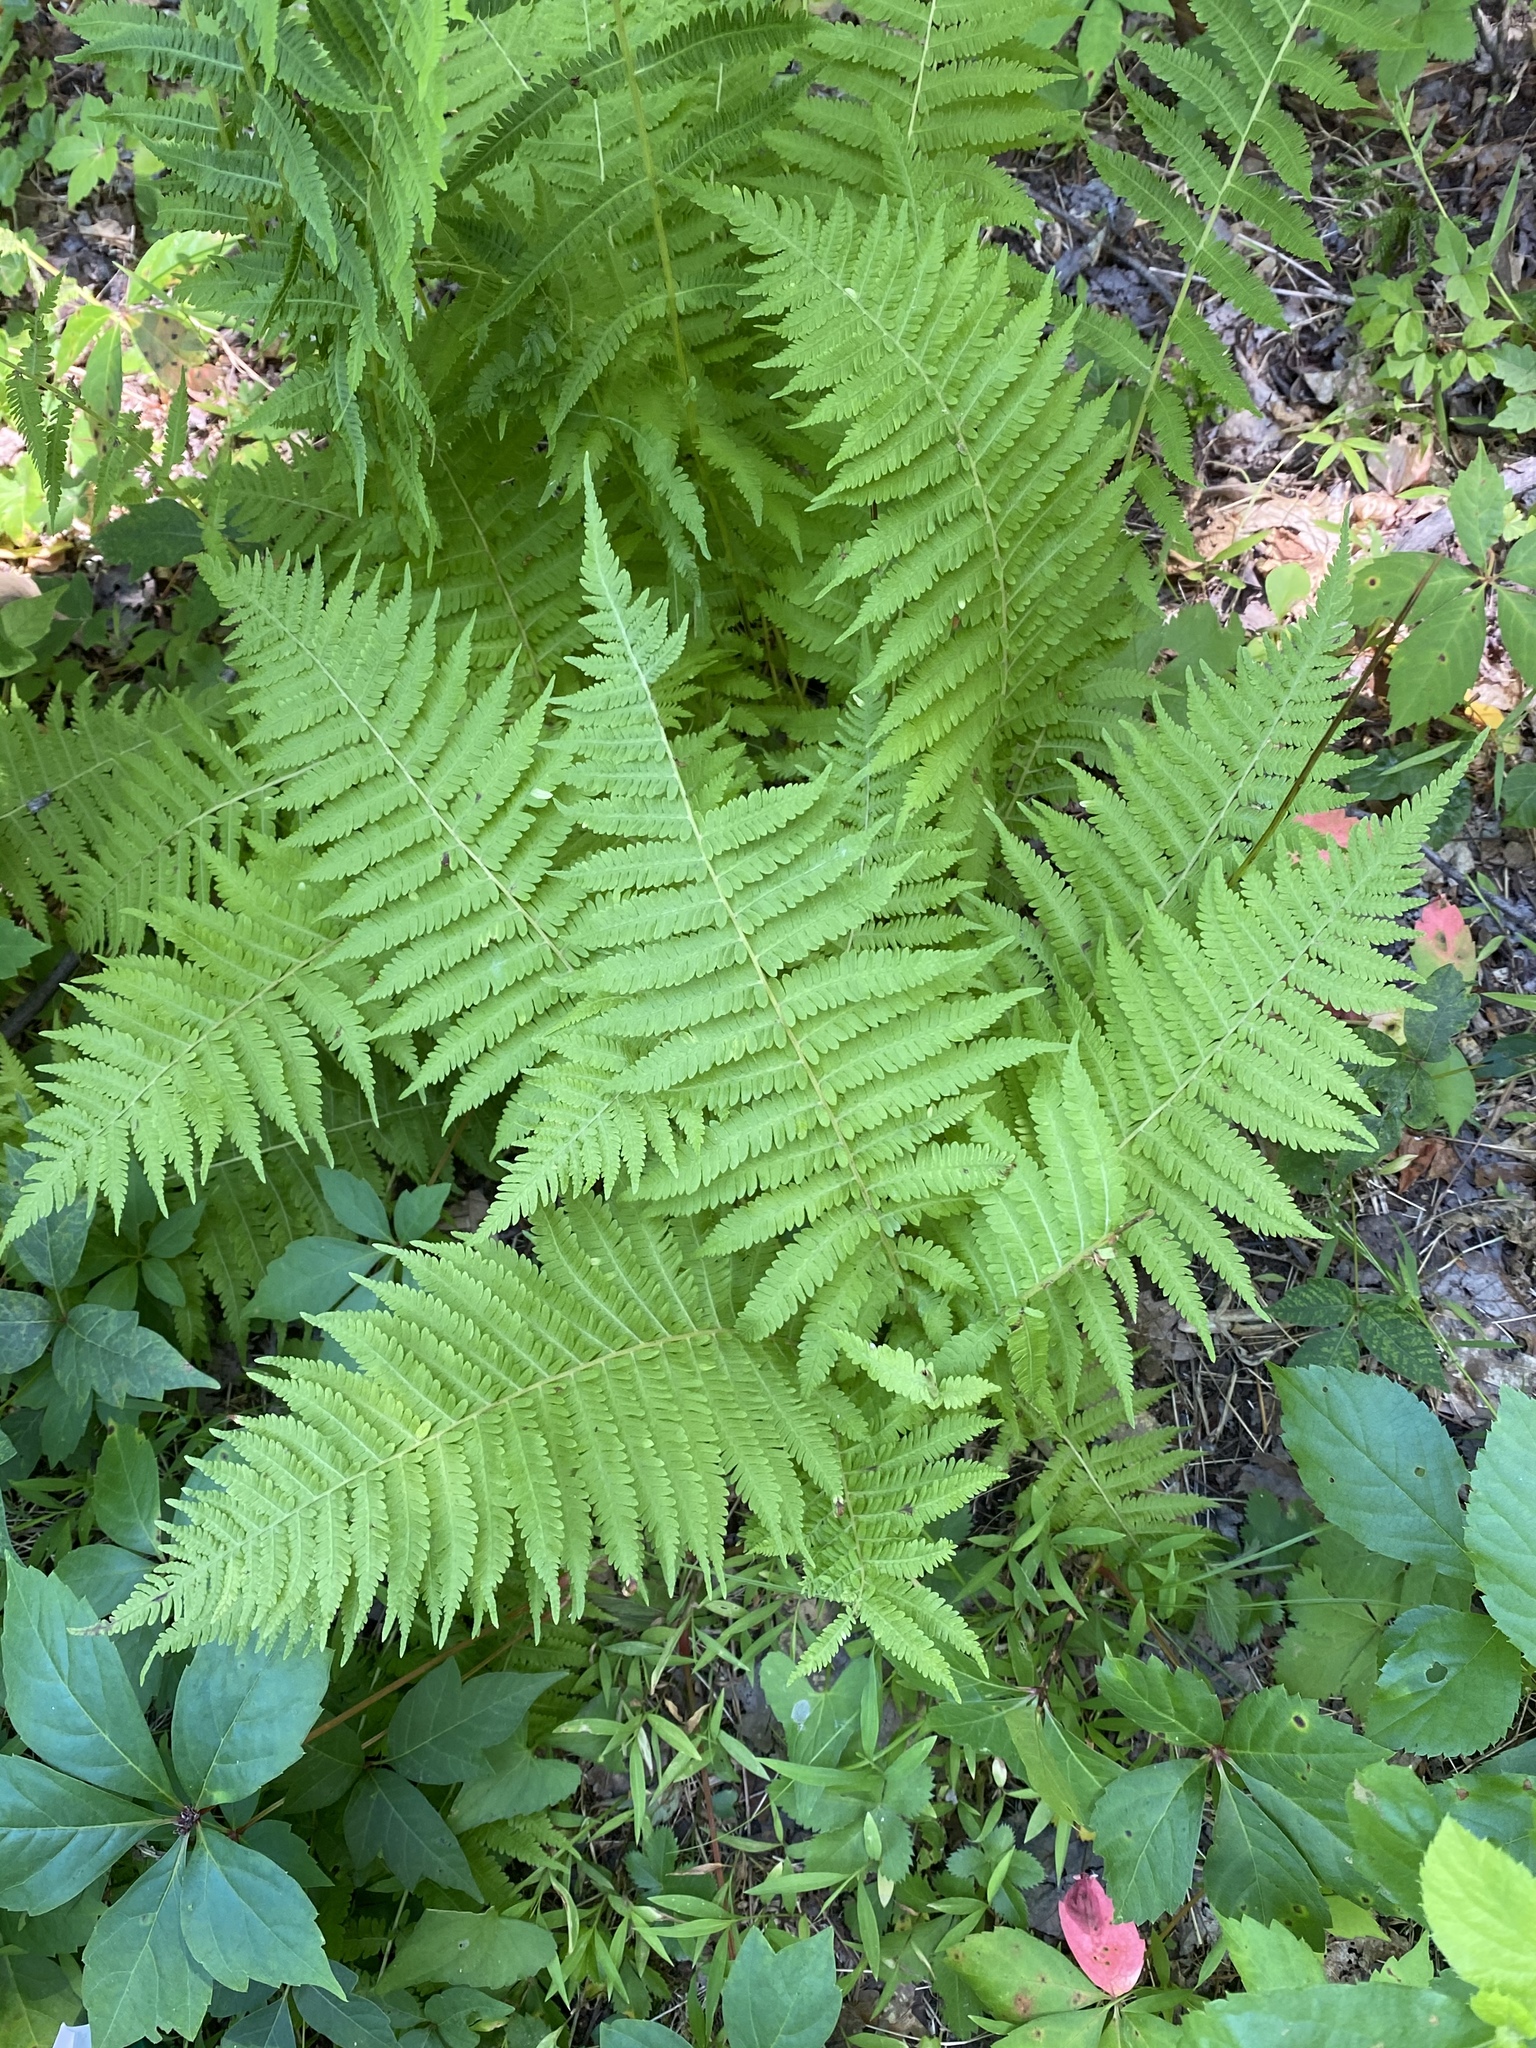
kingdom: Plantae
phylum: Tracheophyta
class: Polypodiopsida
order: Polypodiales
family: Thelypteridaceae
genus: Amauropelta
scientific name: Amauropelta noveboracensis
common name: New york fern
